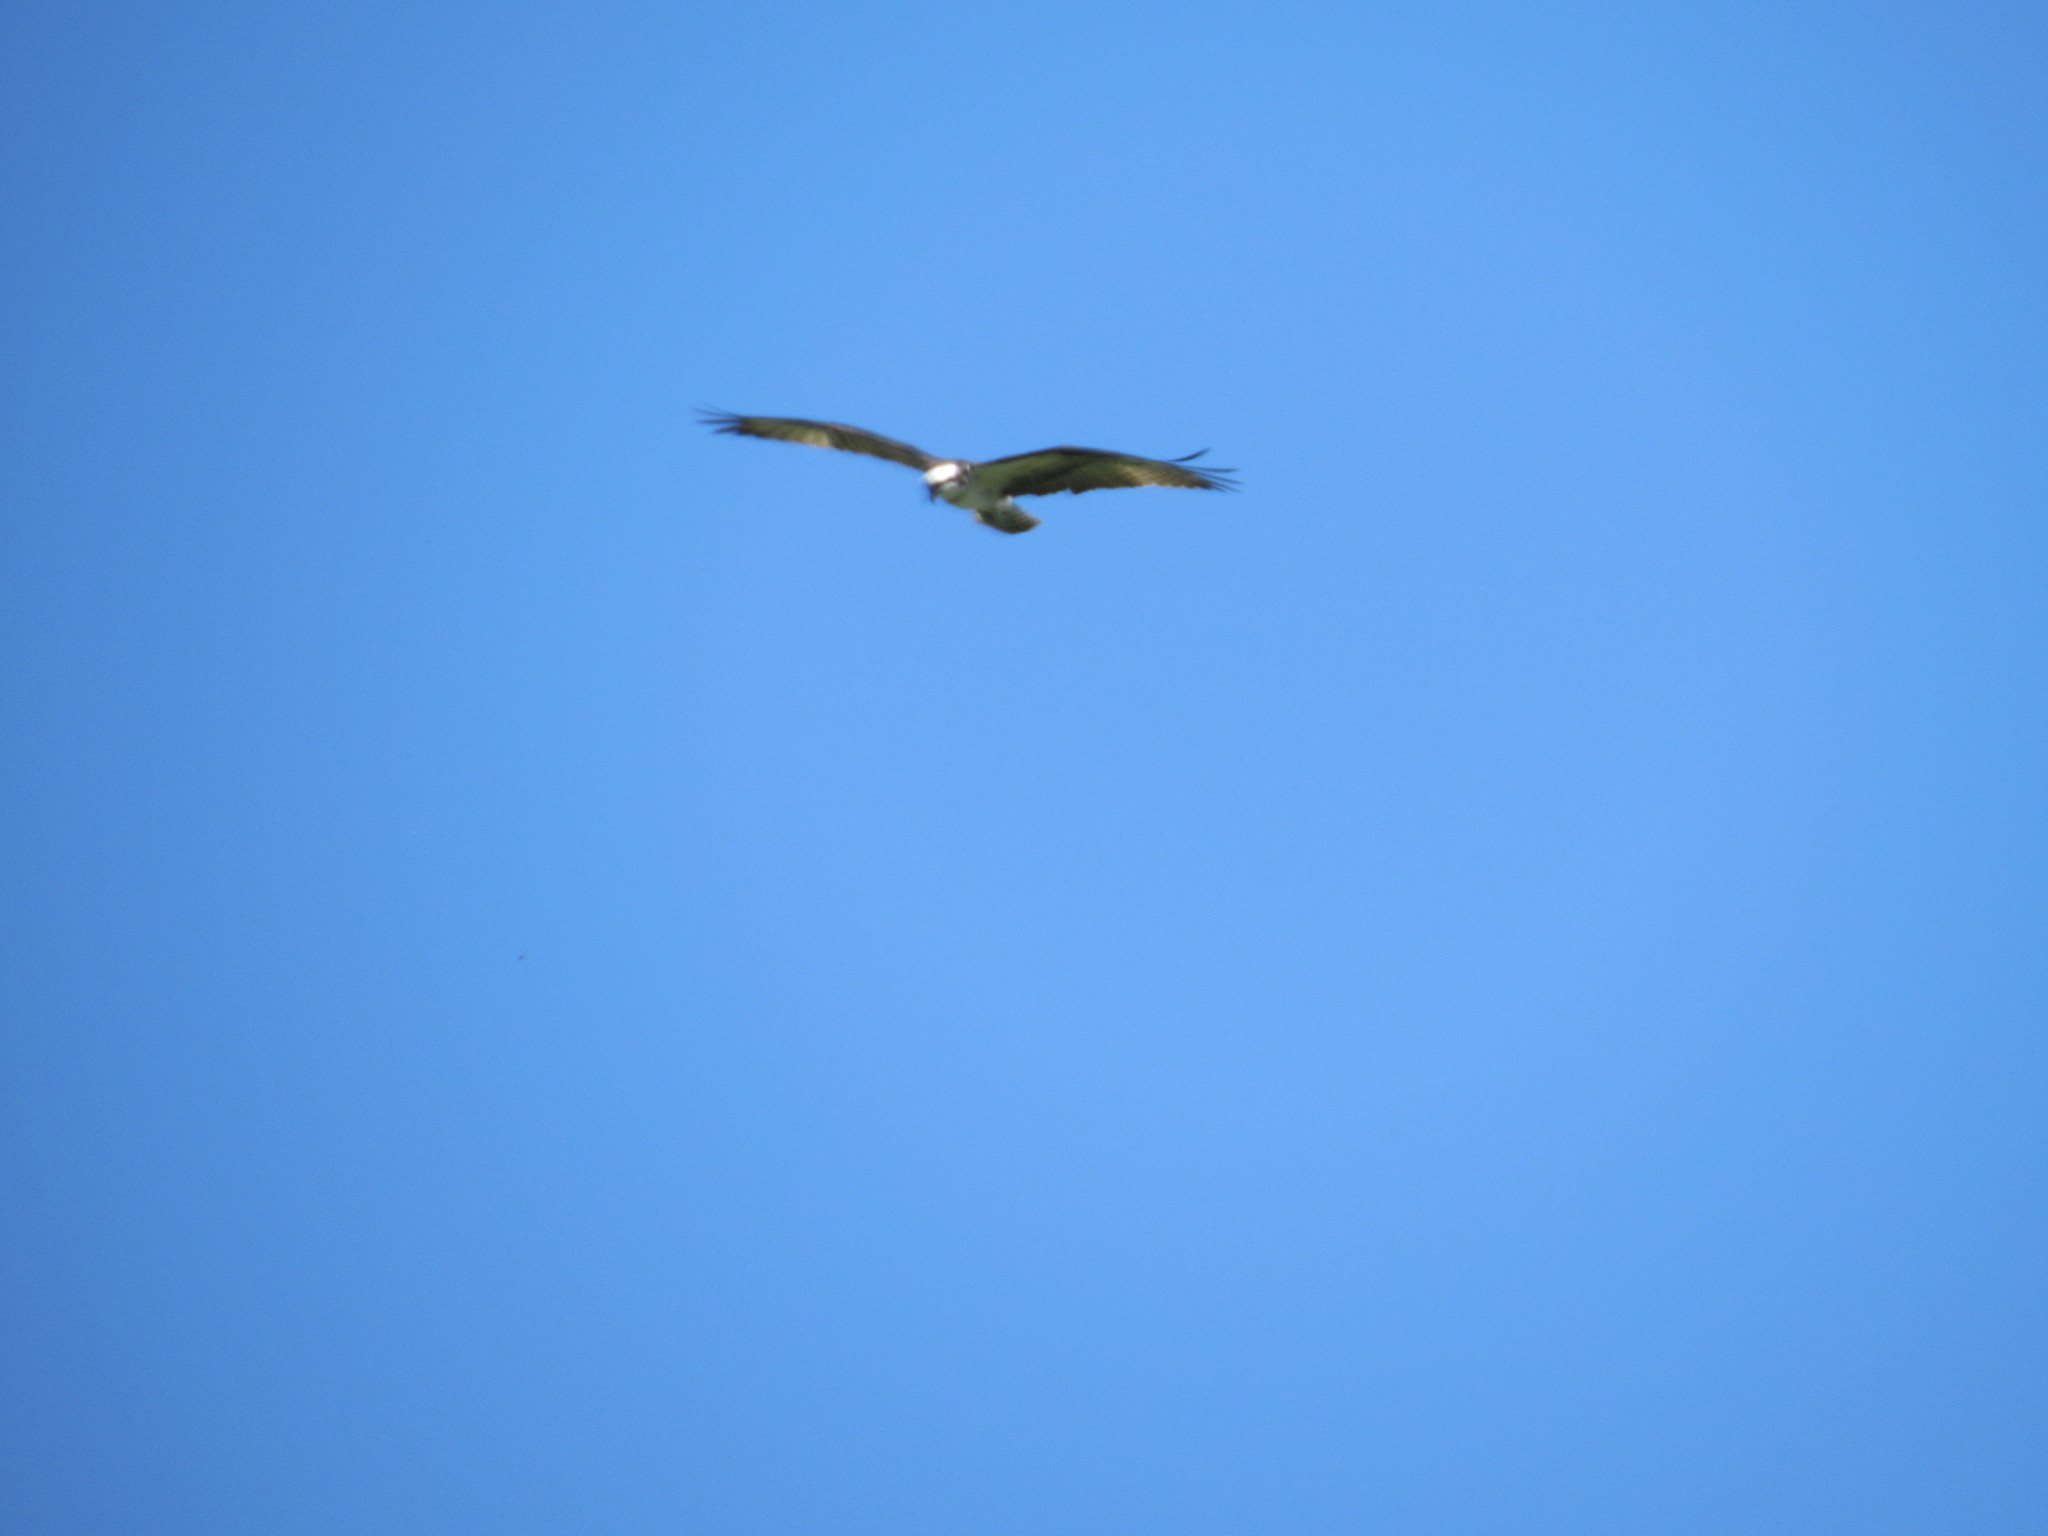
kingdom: Animalia
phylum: Chordata
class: Aves
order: Accipitriformes
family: Pandionidae
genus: Pandion
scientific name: Pandion haliaetus
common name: Osprey
